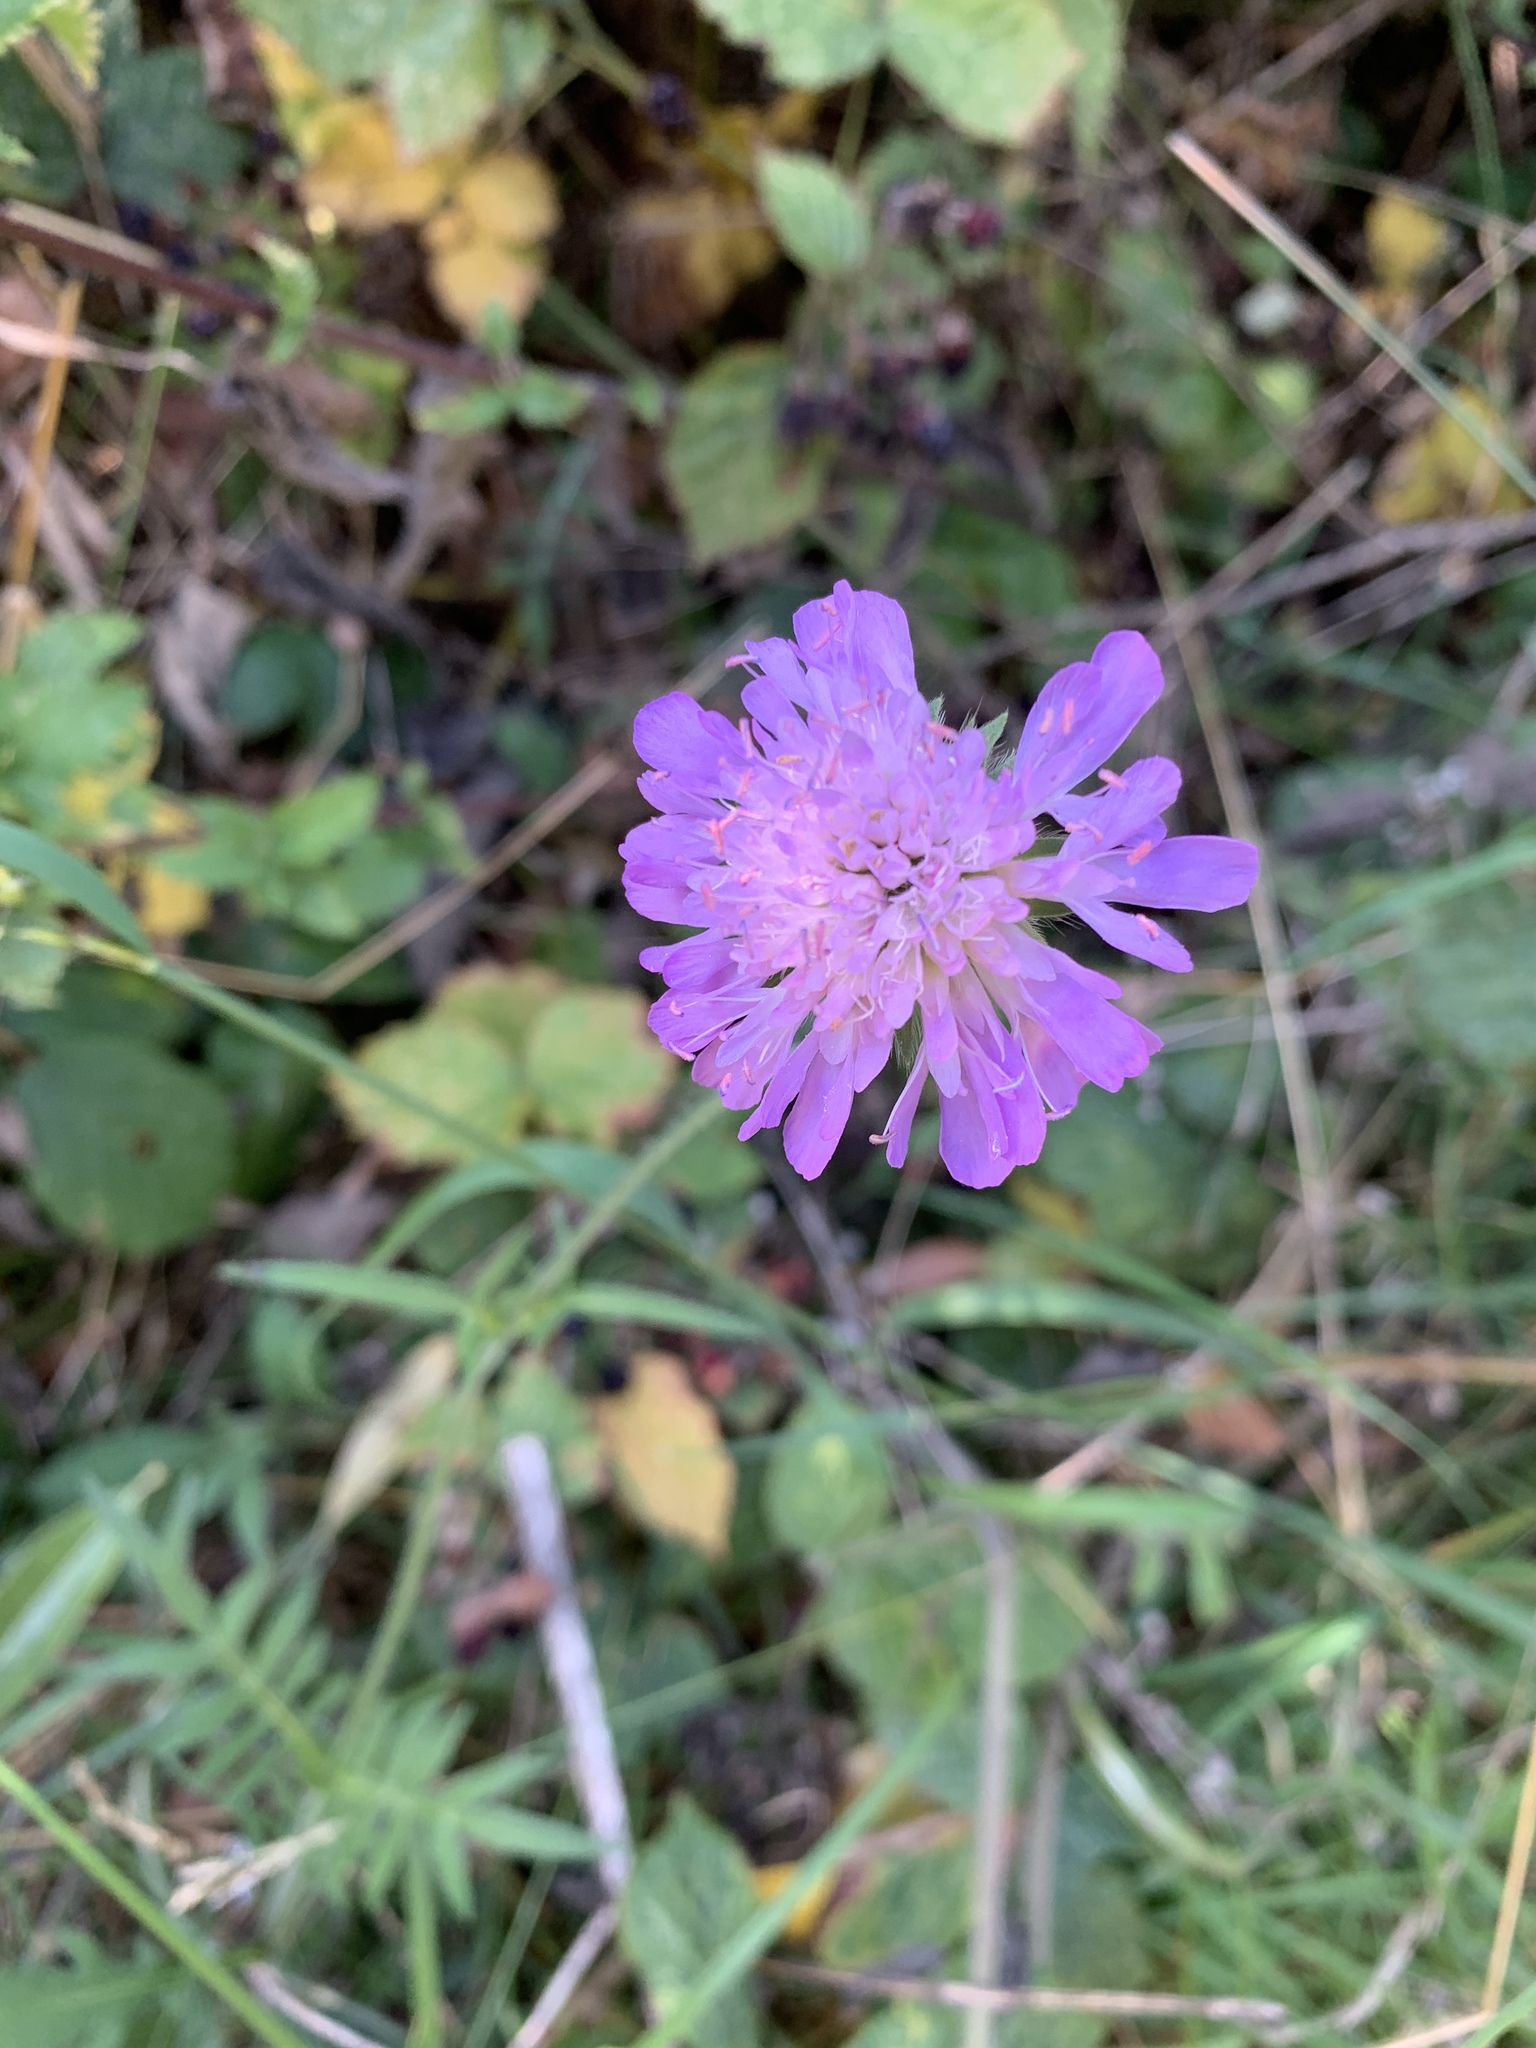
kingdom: Plantae
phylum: Tracheophyta
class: Magnoliopsida
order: Dipsacales
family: Caprifoliaceae
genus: Knautia
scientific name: Knautia arvensis
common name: Field scabiosa
